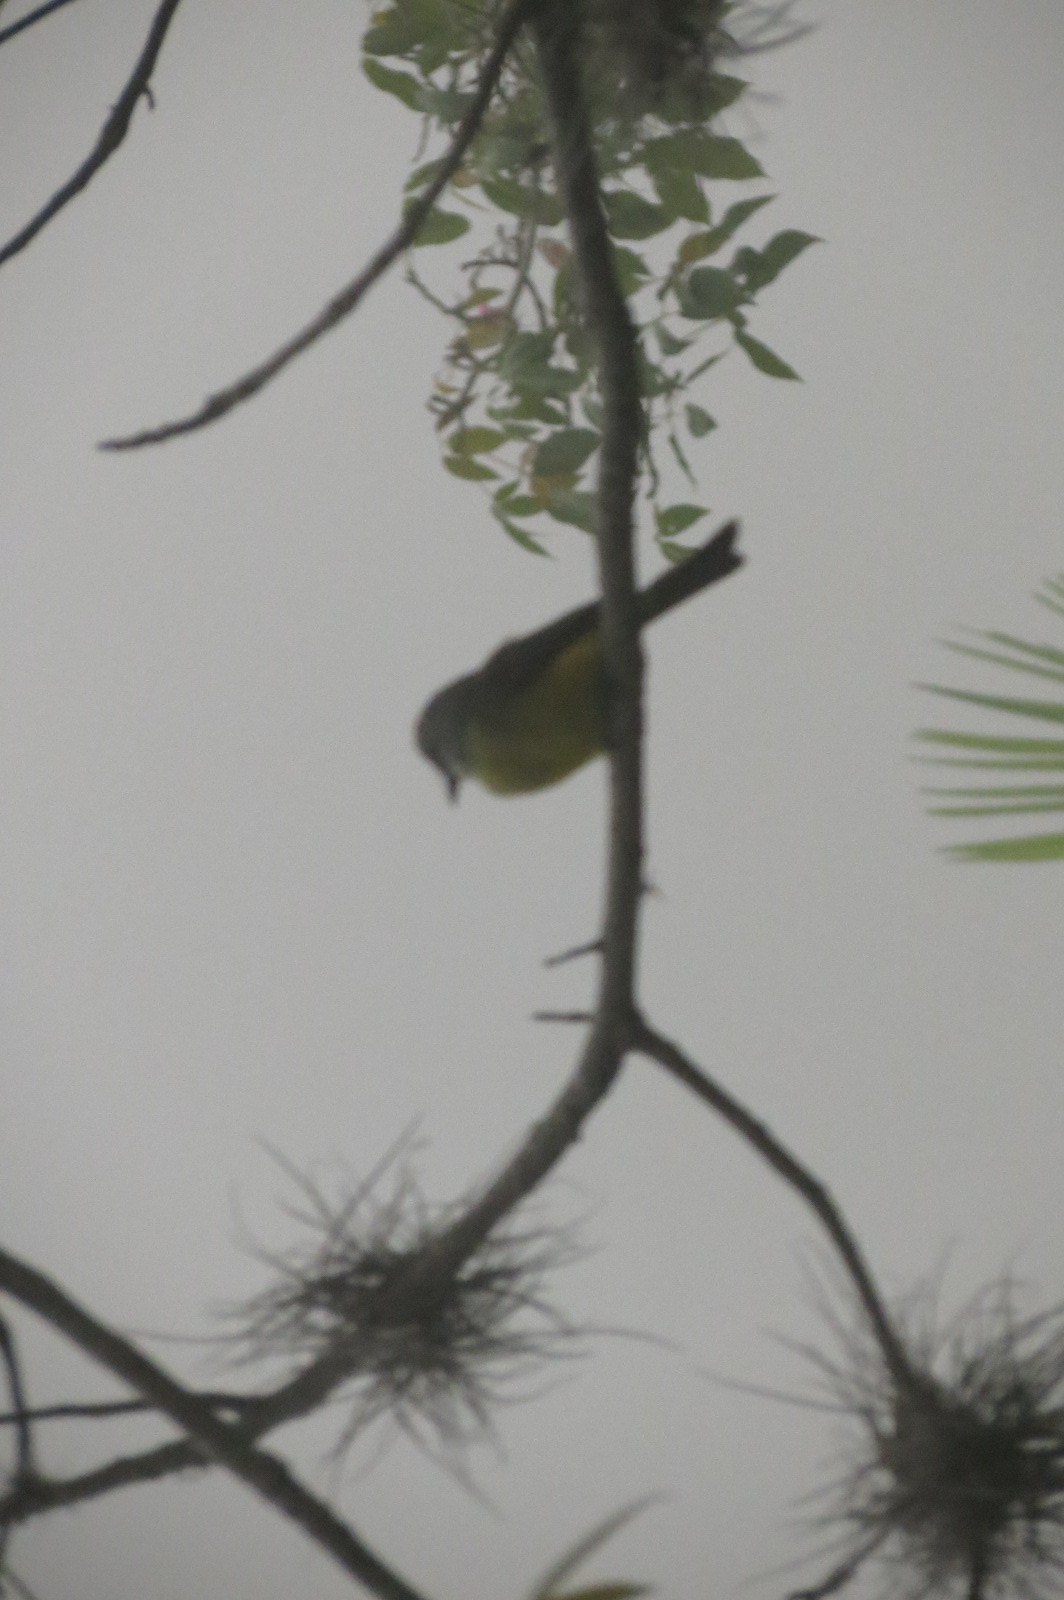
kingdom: Animalia
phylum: Chordata
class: Aves
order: Passeriformes
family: Tyrannidae
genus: Tyrannus
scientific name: Tyrannus melancholicus
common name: Tropical kingbird
